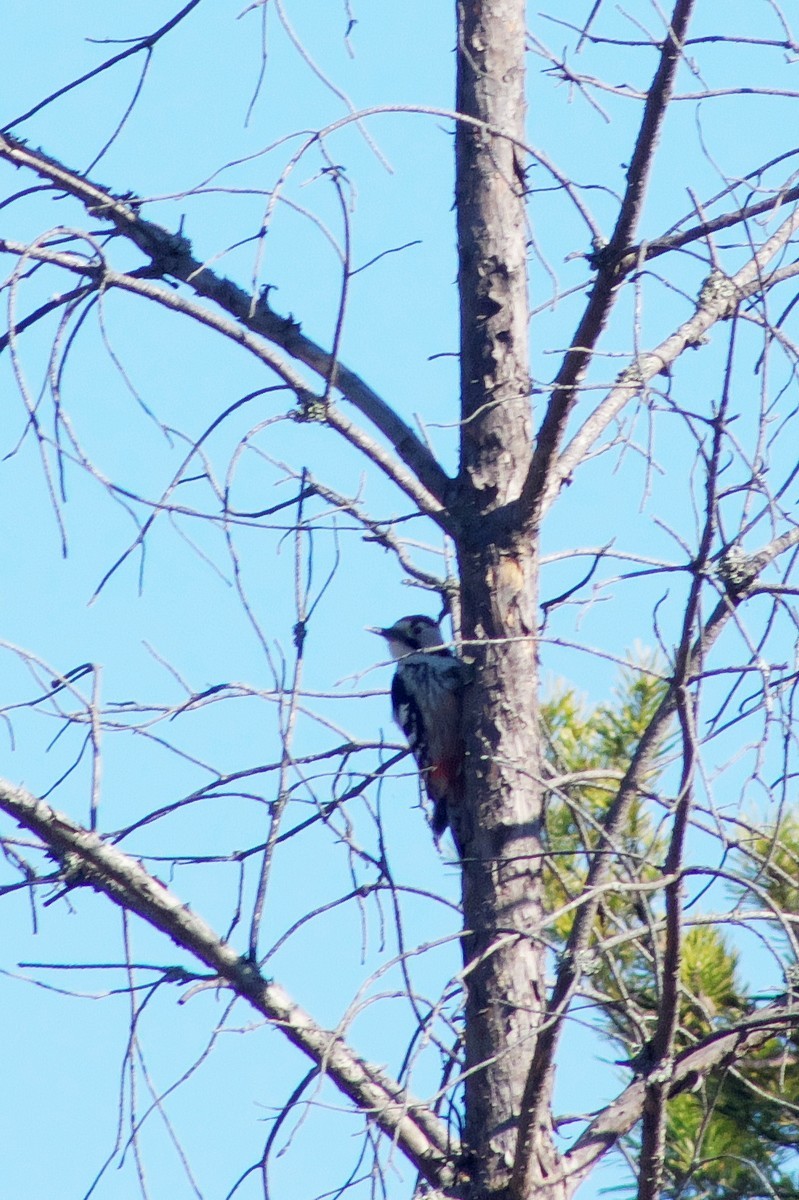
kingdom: Animalia
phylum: Chordata
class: Aves
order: Piciformes
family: Picidae
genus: Dendrocopos
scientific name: Dendrocopos leucotos
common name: White-backed woodpecker
